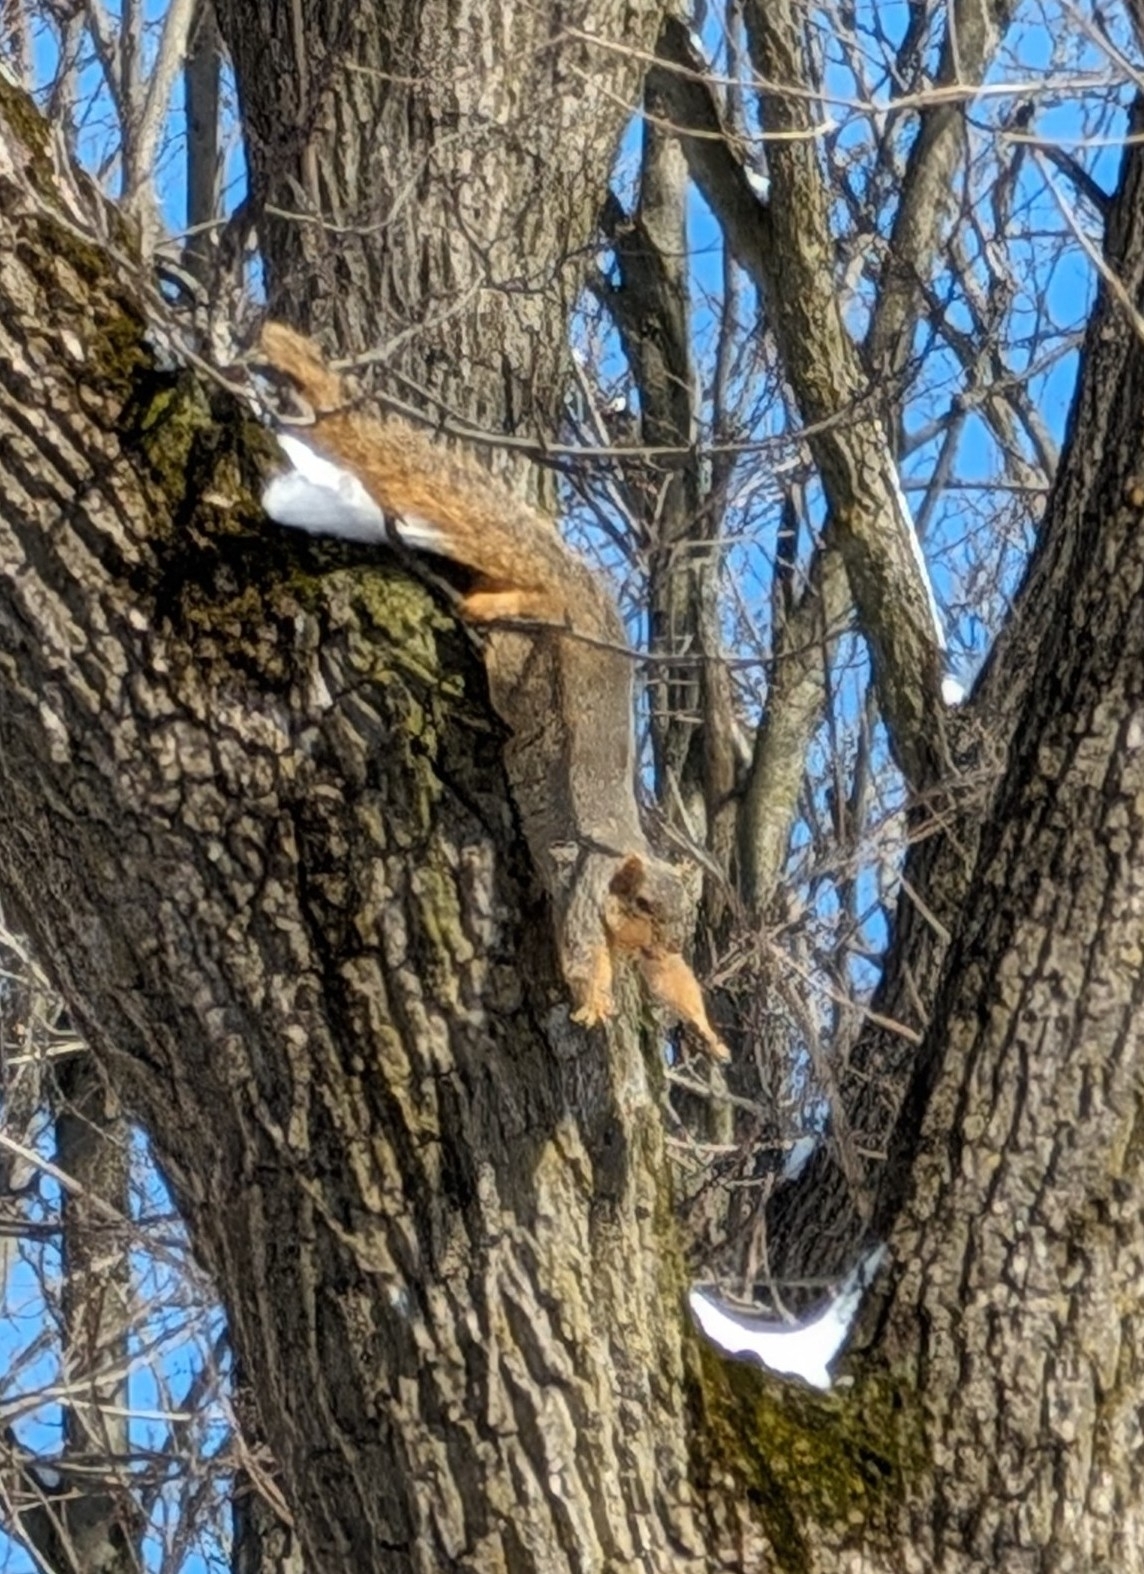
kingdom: Animalia
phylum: Chordata
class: Mammalia
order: Rodentia
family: Sciuridae
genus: Sciurus
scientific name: Sciurus niger
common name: Fox squirrel
